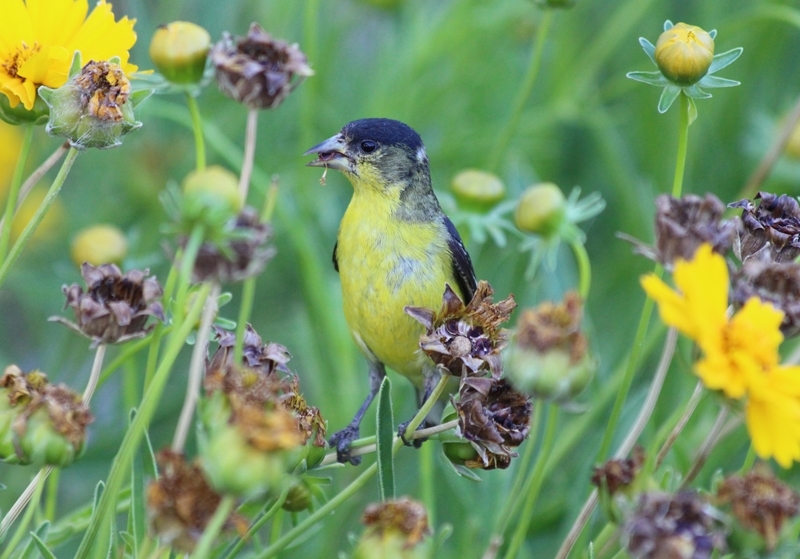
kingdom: Animalia
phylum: Chordata
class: Aves
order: Passeriformes
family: Fringillidae
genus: Spinus
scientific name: Spinus psaltria
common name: Lesser goldfinch
